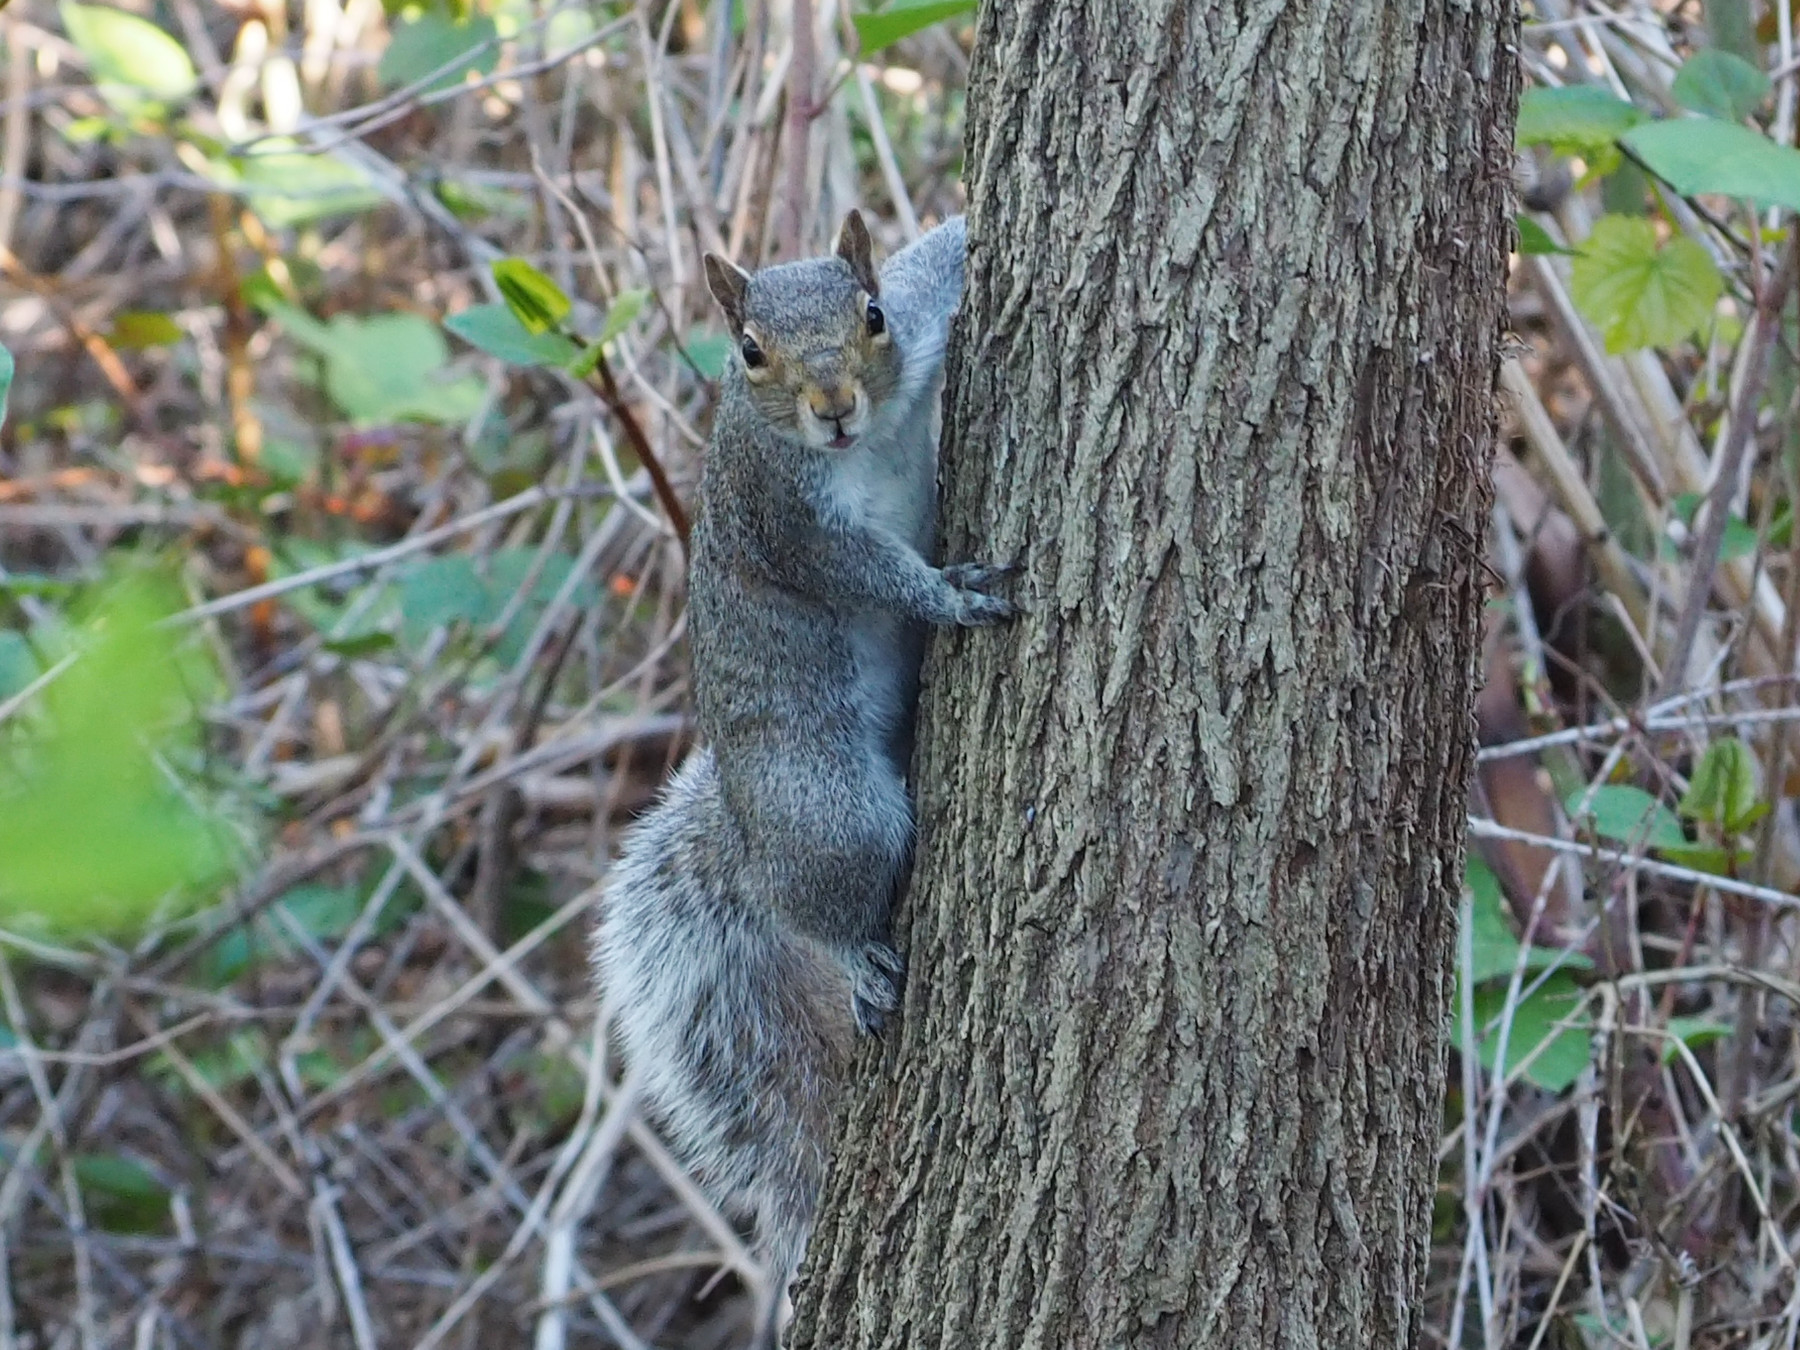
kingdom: Animalia
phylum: Chordata
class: Mammalia
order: Rodentia
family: Sciuridae
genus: Sciurus
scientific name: Sciurus carolinensis
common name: Eastern gray squirrel
